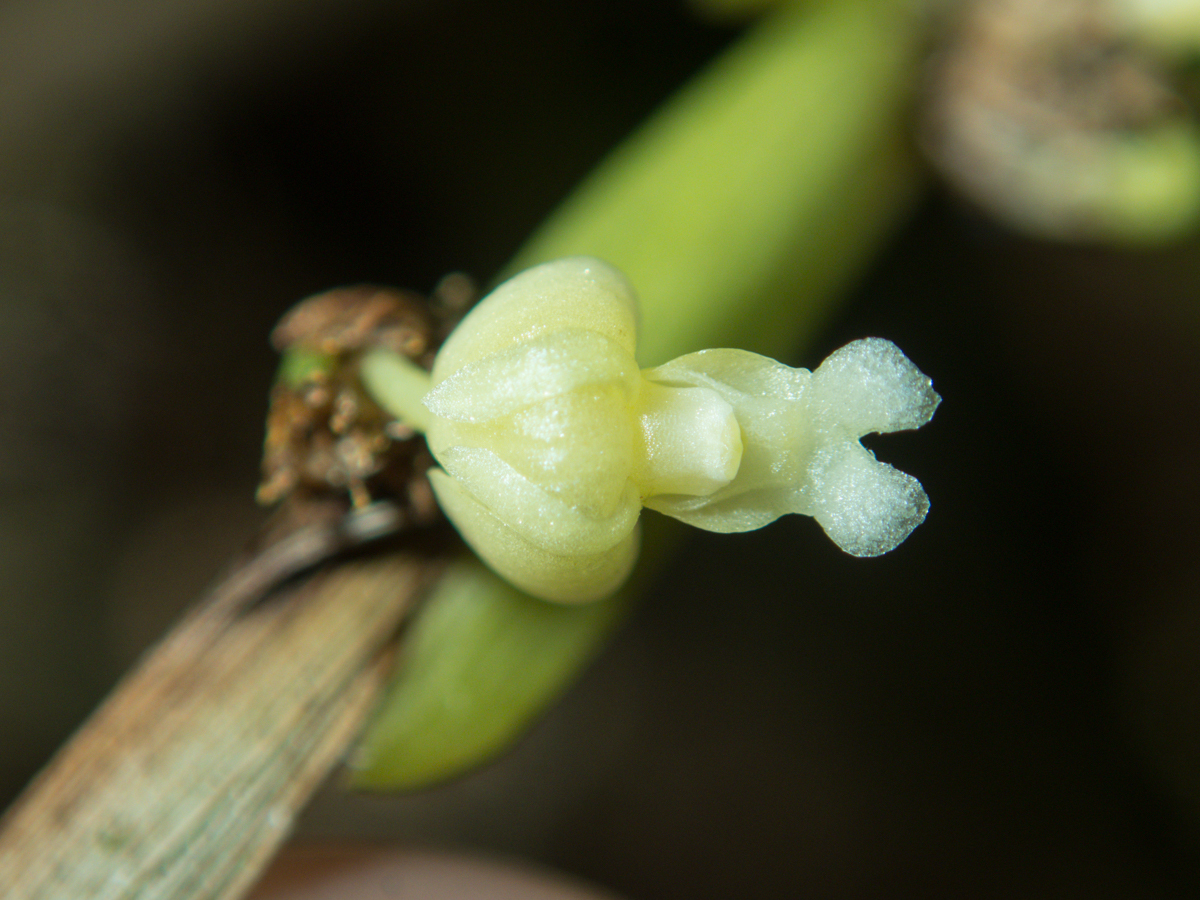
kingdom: Plantae
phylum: Tracheophyta
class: Liliopsida
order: Asparagales
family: Orchidaceae
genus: Dendrobium
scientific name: Dendrobium aloifolium
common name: Aloe-like dendrobium
